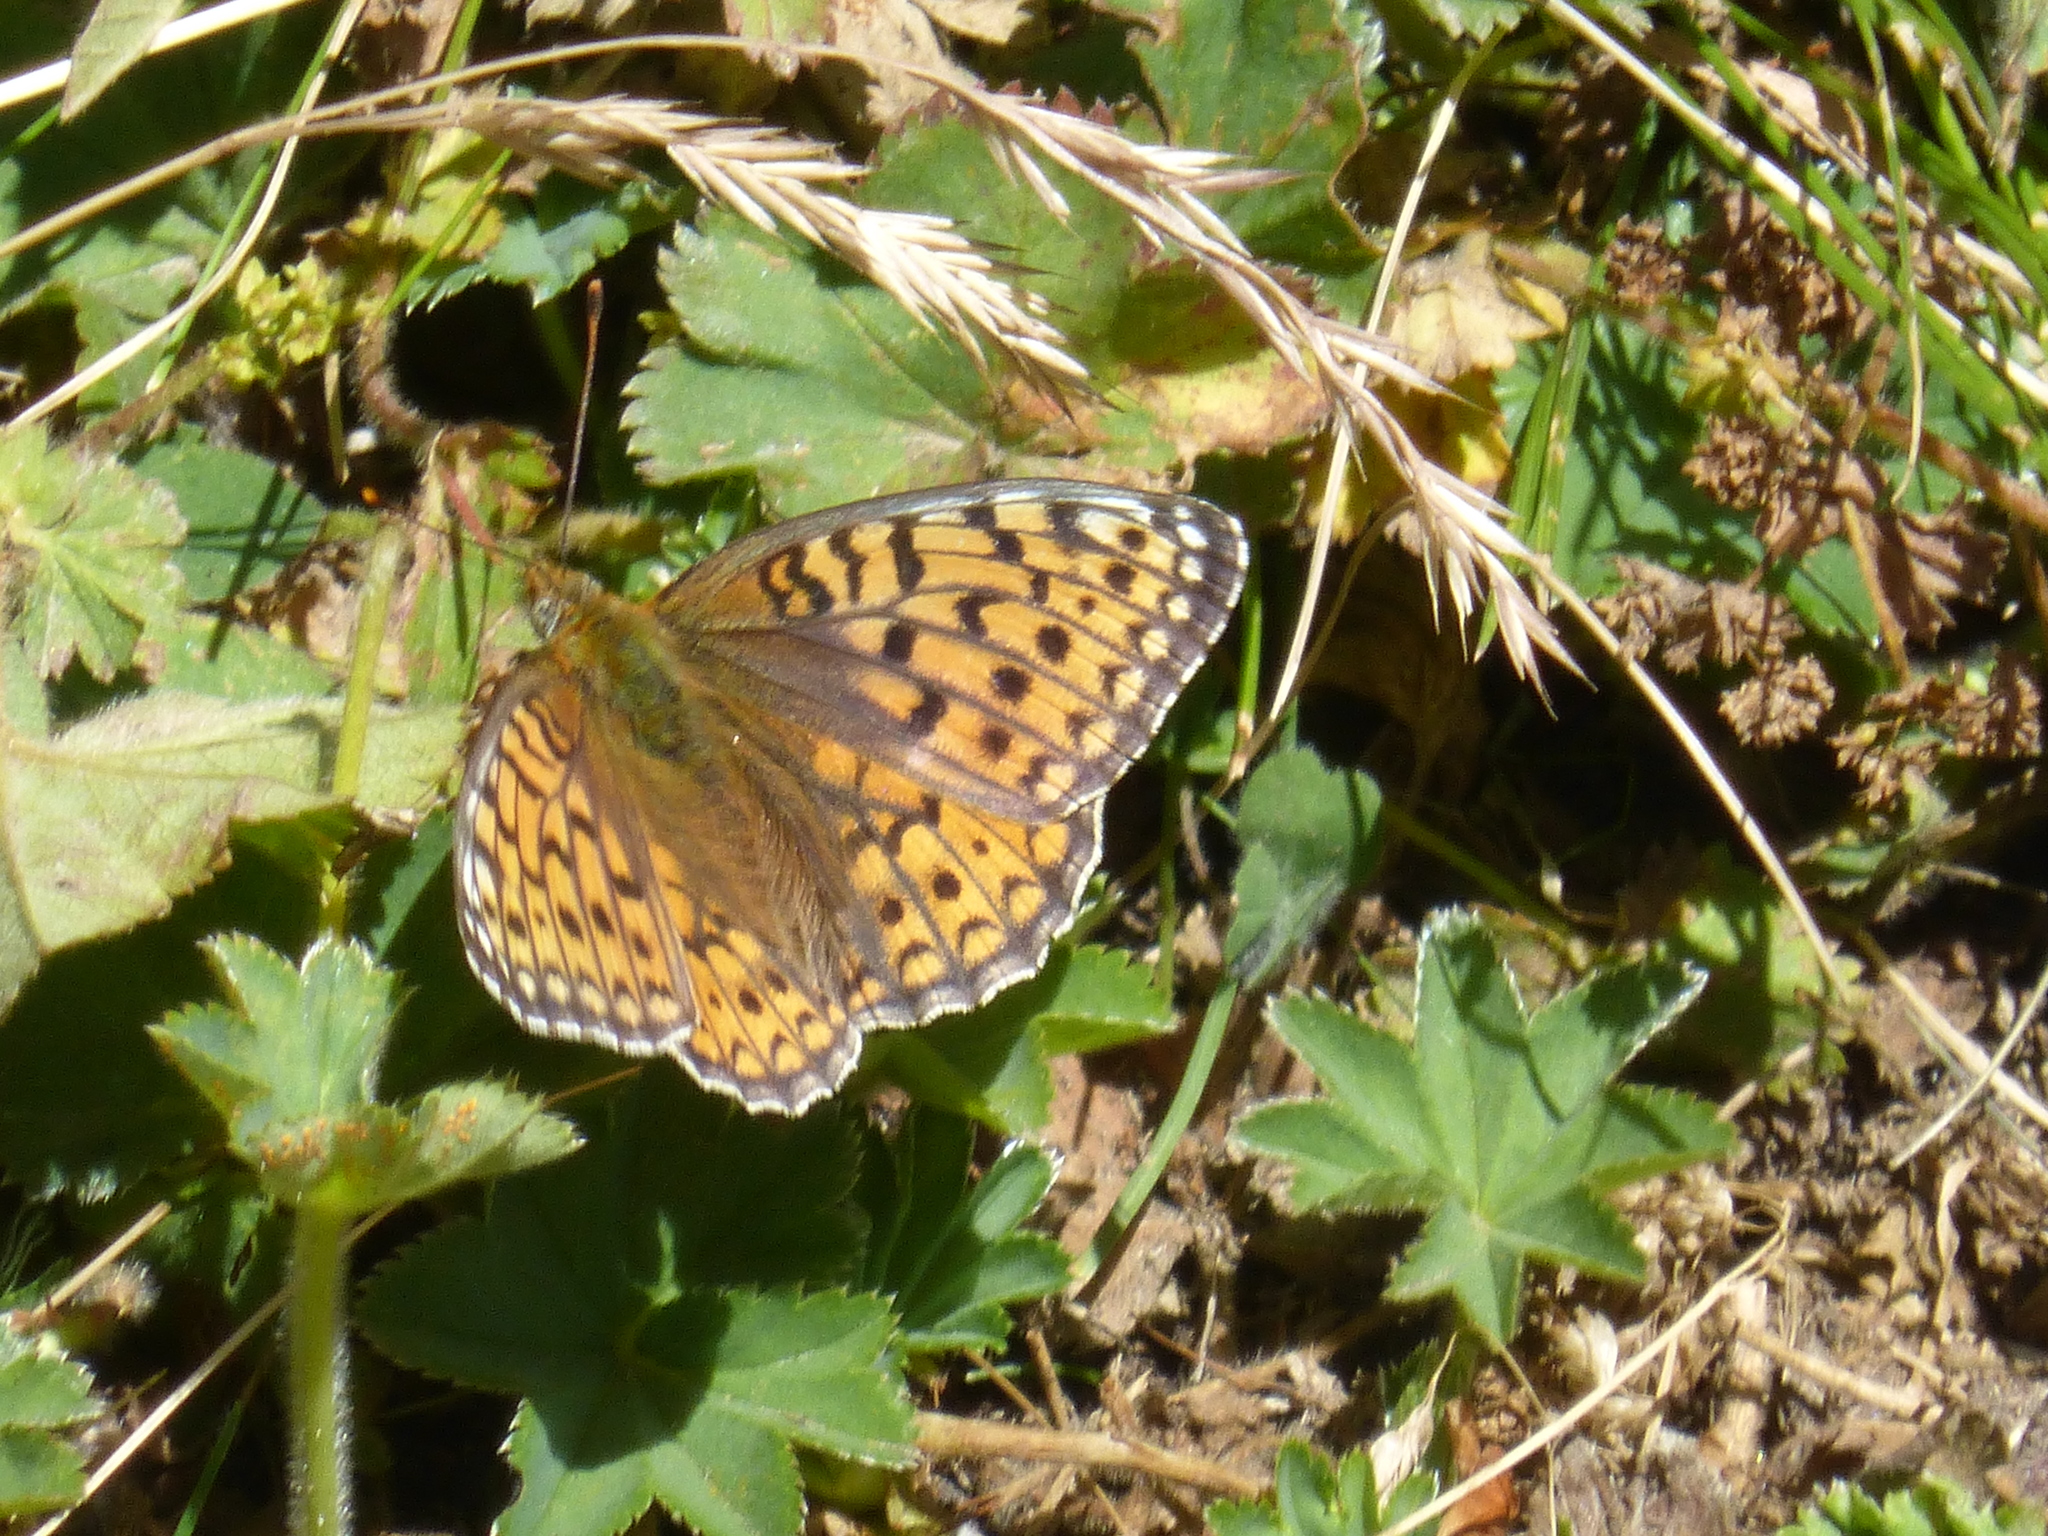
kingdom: Animalia
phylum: Arthropoda
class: Insecta
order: Lepidoptera
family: Nymphalidae
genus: Fabriciana
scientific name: Fabriciana niobe
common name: Niobe fritillary
